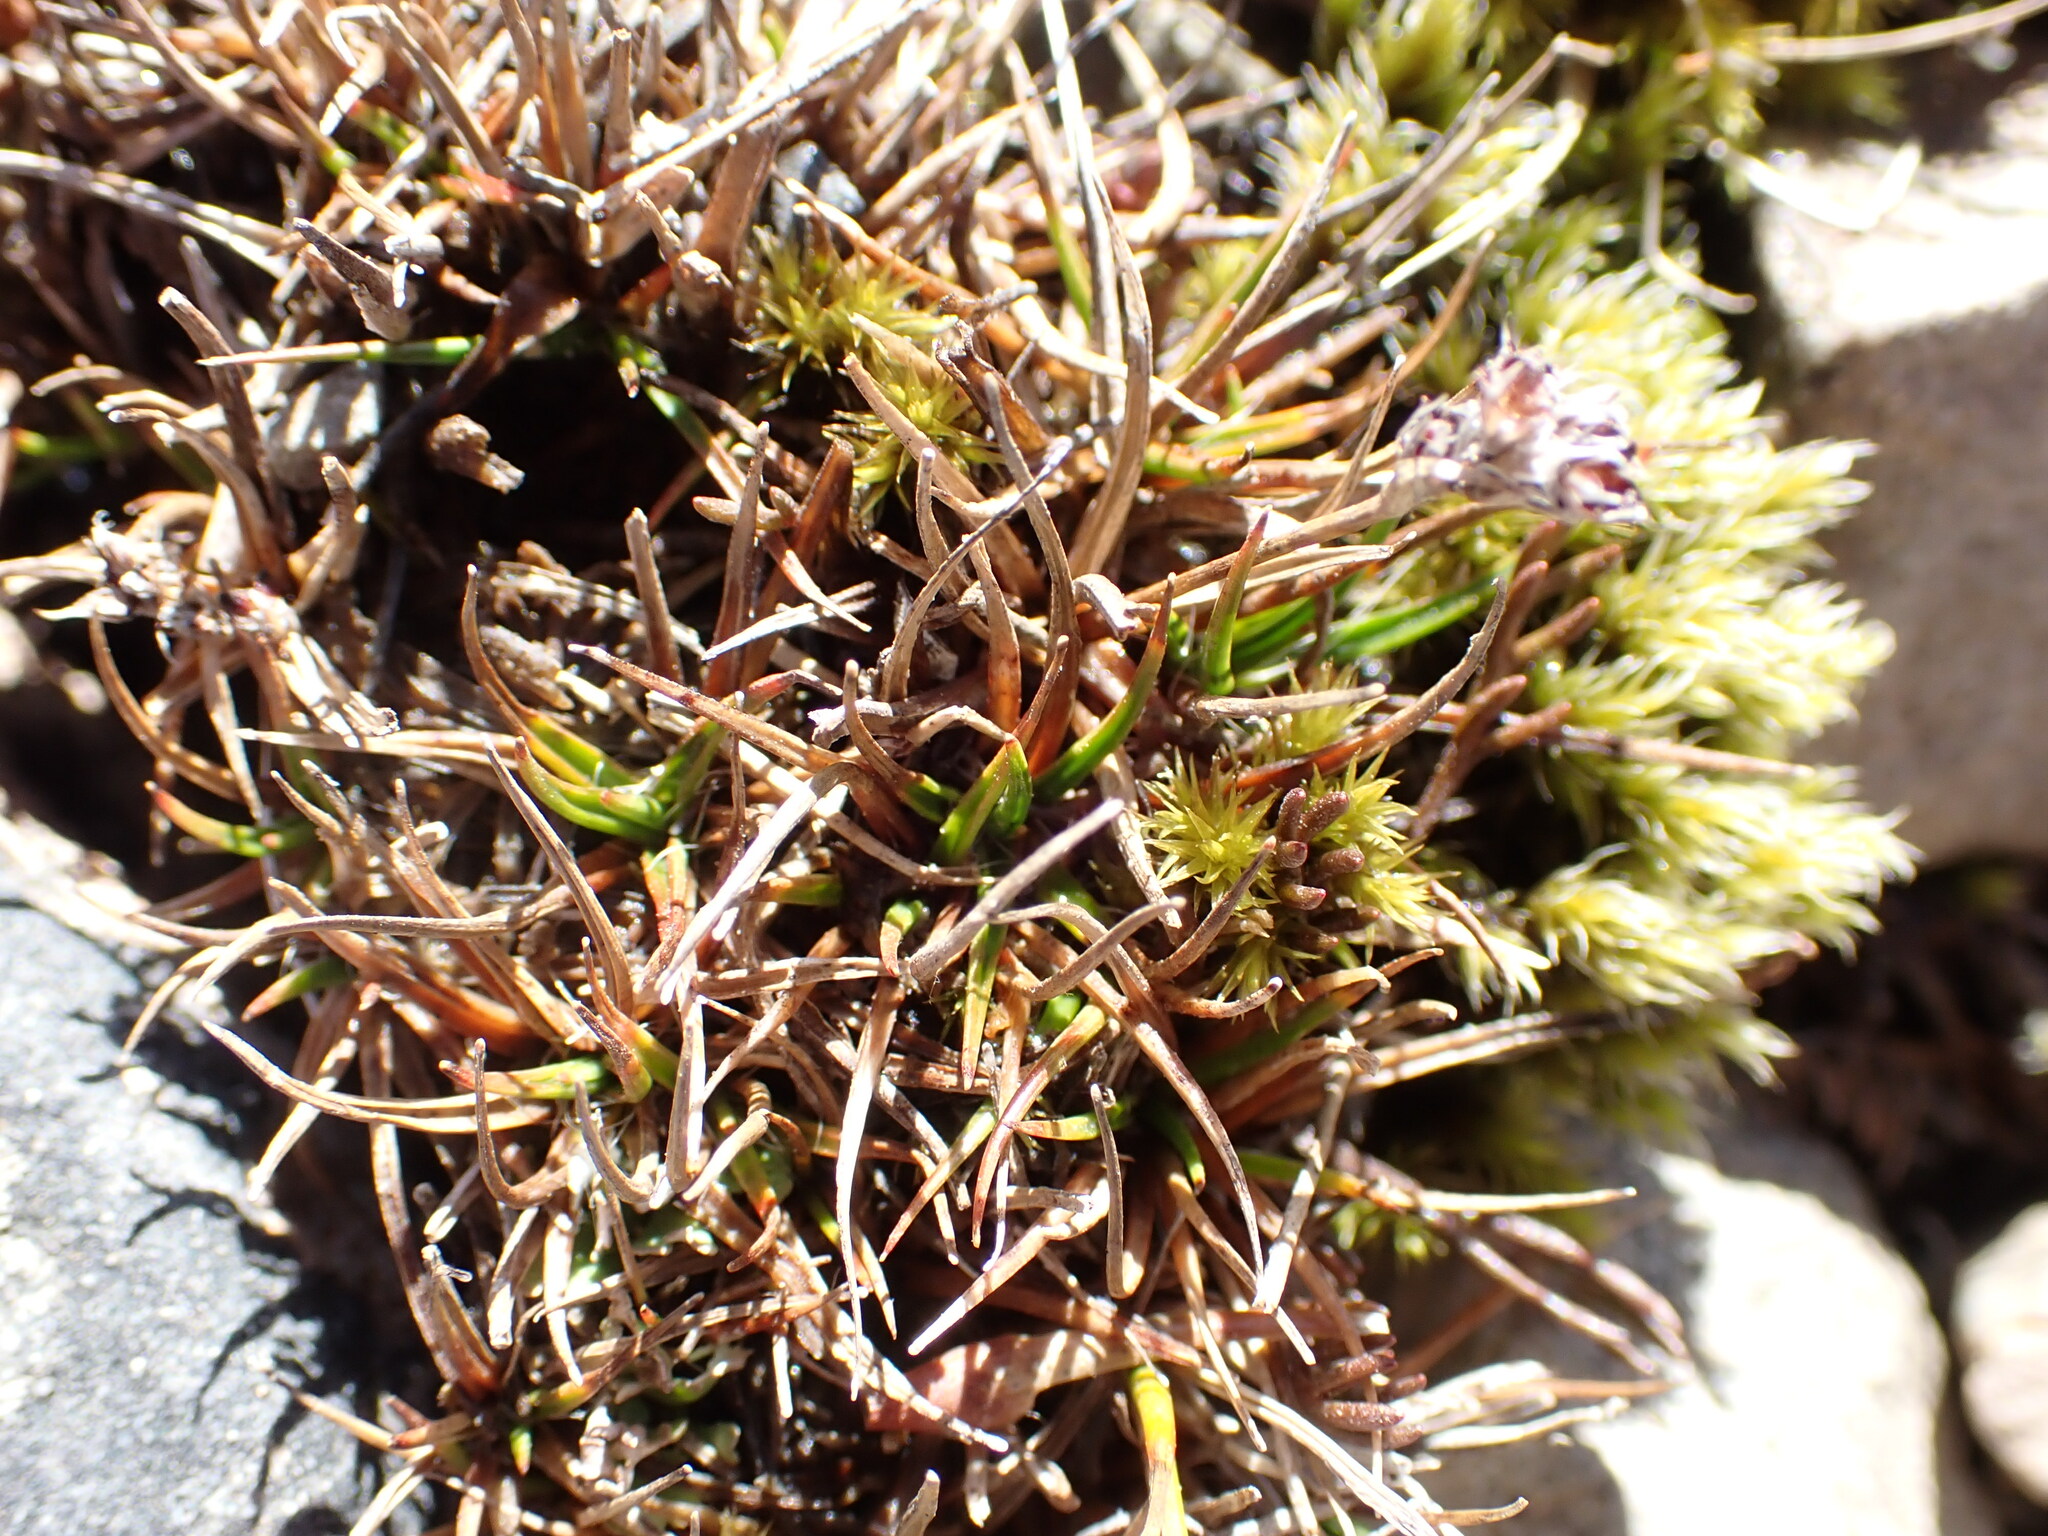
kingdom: Plantae
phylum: Tracheophyta
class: Liliopsida
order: Poales
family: Juncaceae
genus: Luzula
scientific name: Luzula pumila
